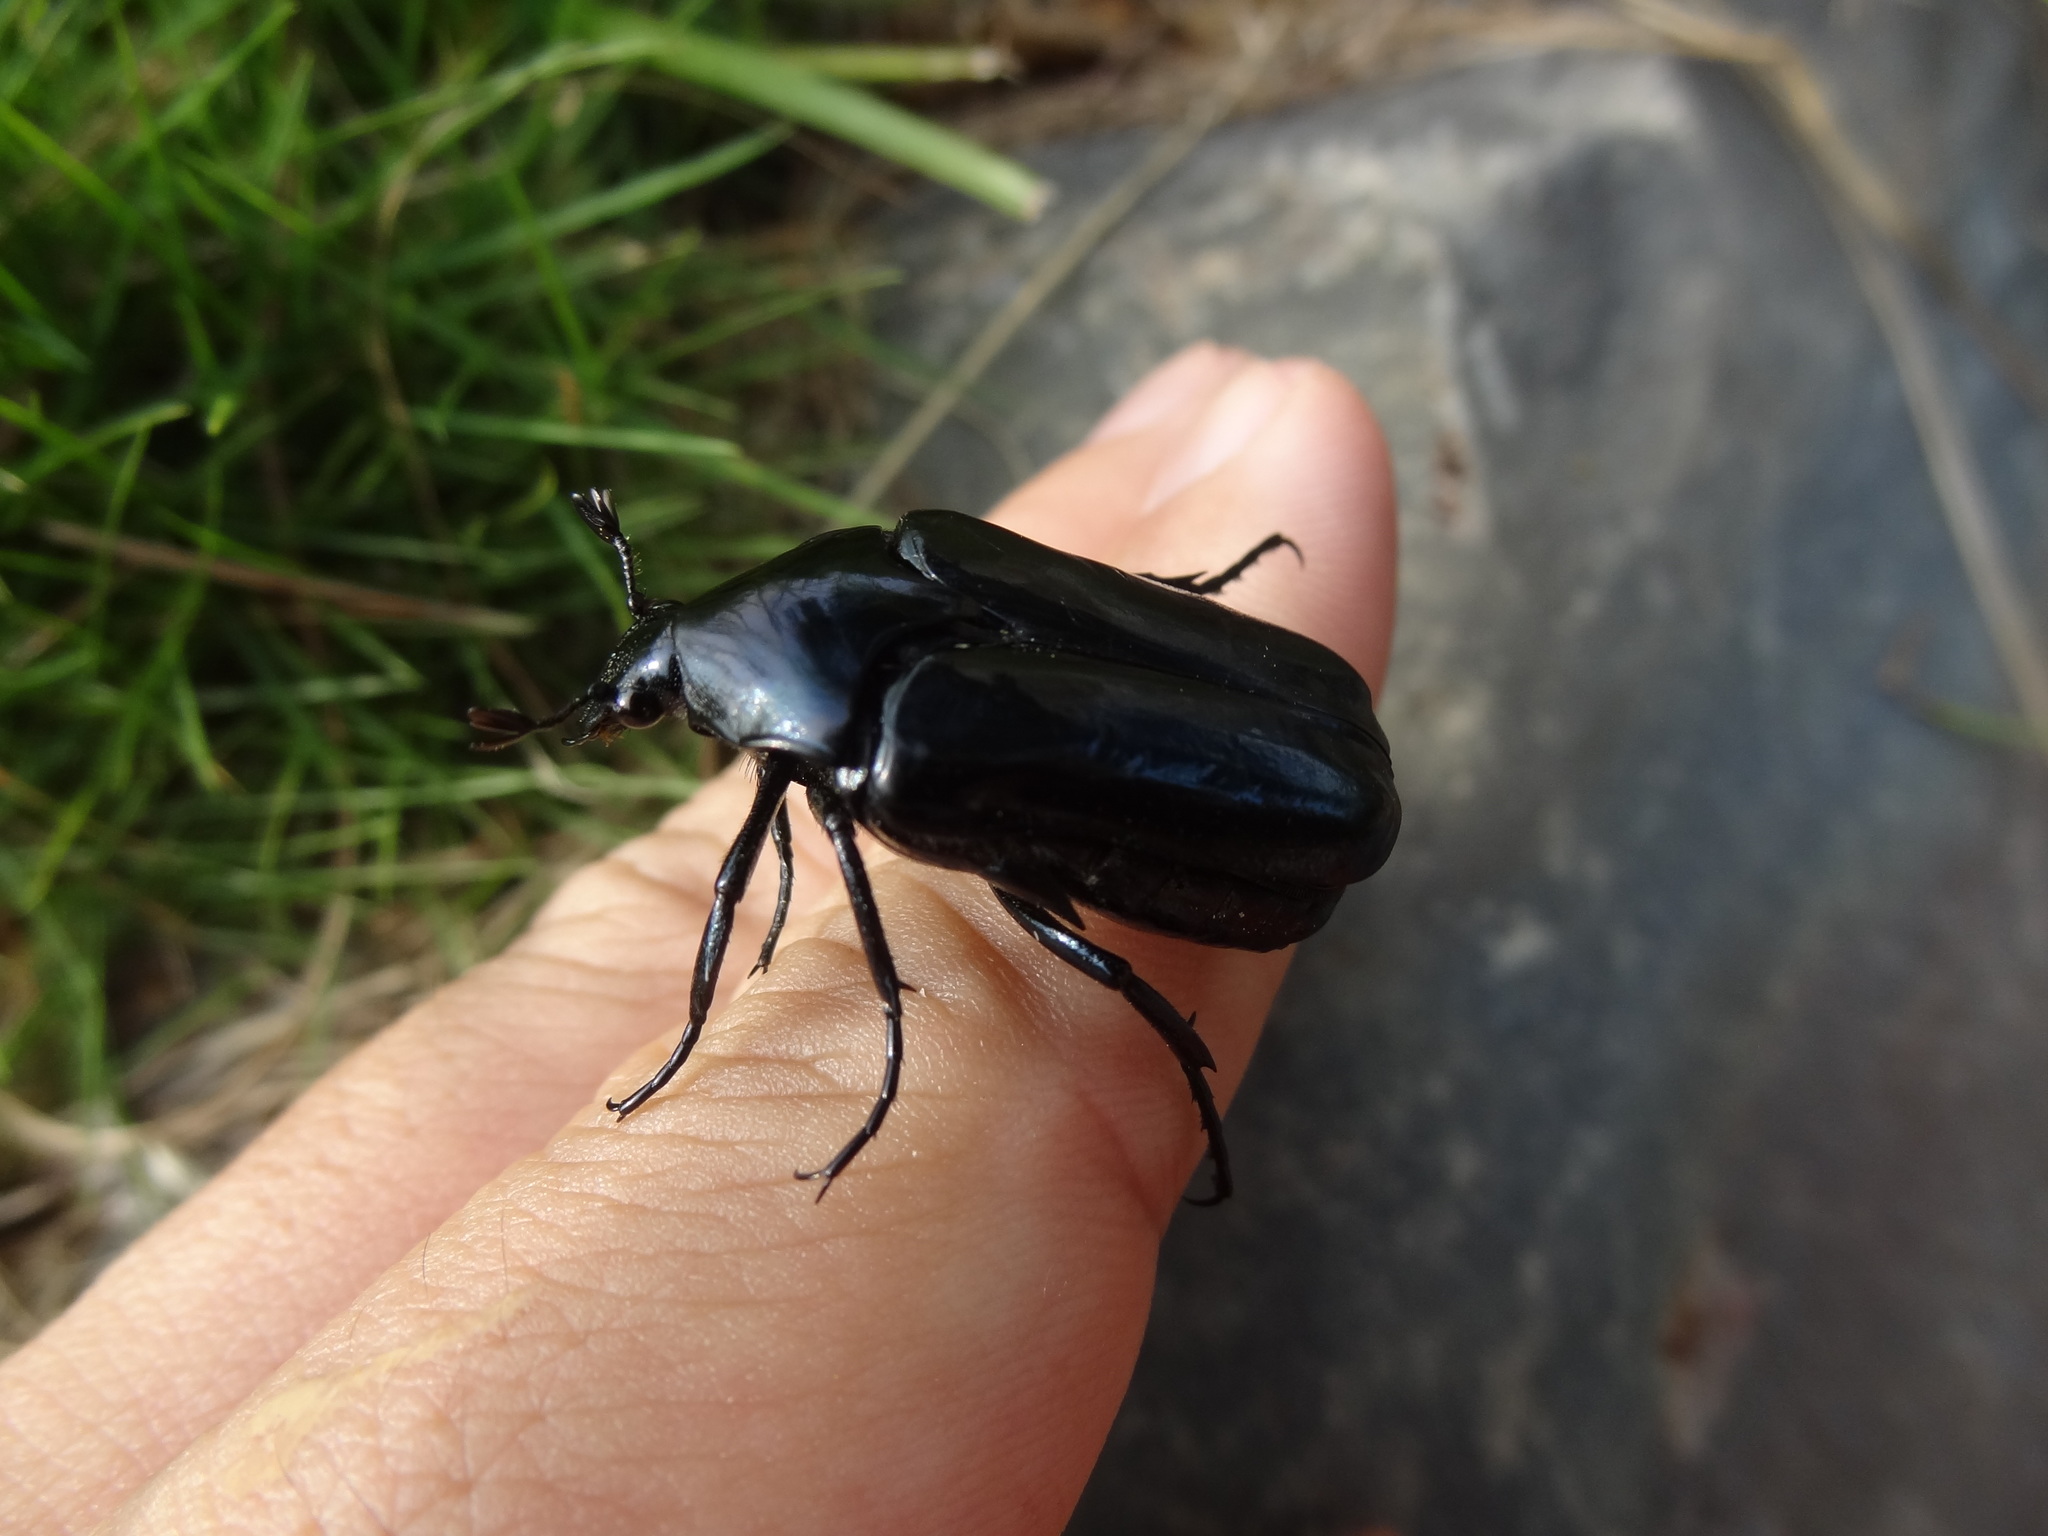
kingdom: Animalia
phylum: Arthropoda
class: Insecta
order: Coleoptera
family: Scarabaeidae
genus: Macronota
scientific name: Macronota shangaicus
